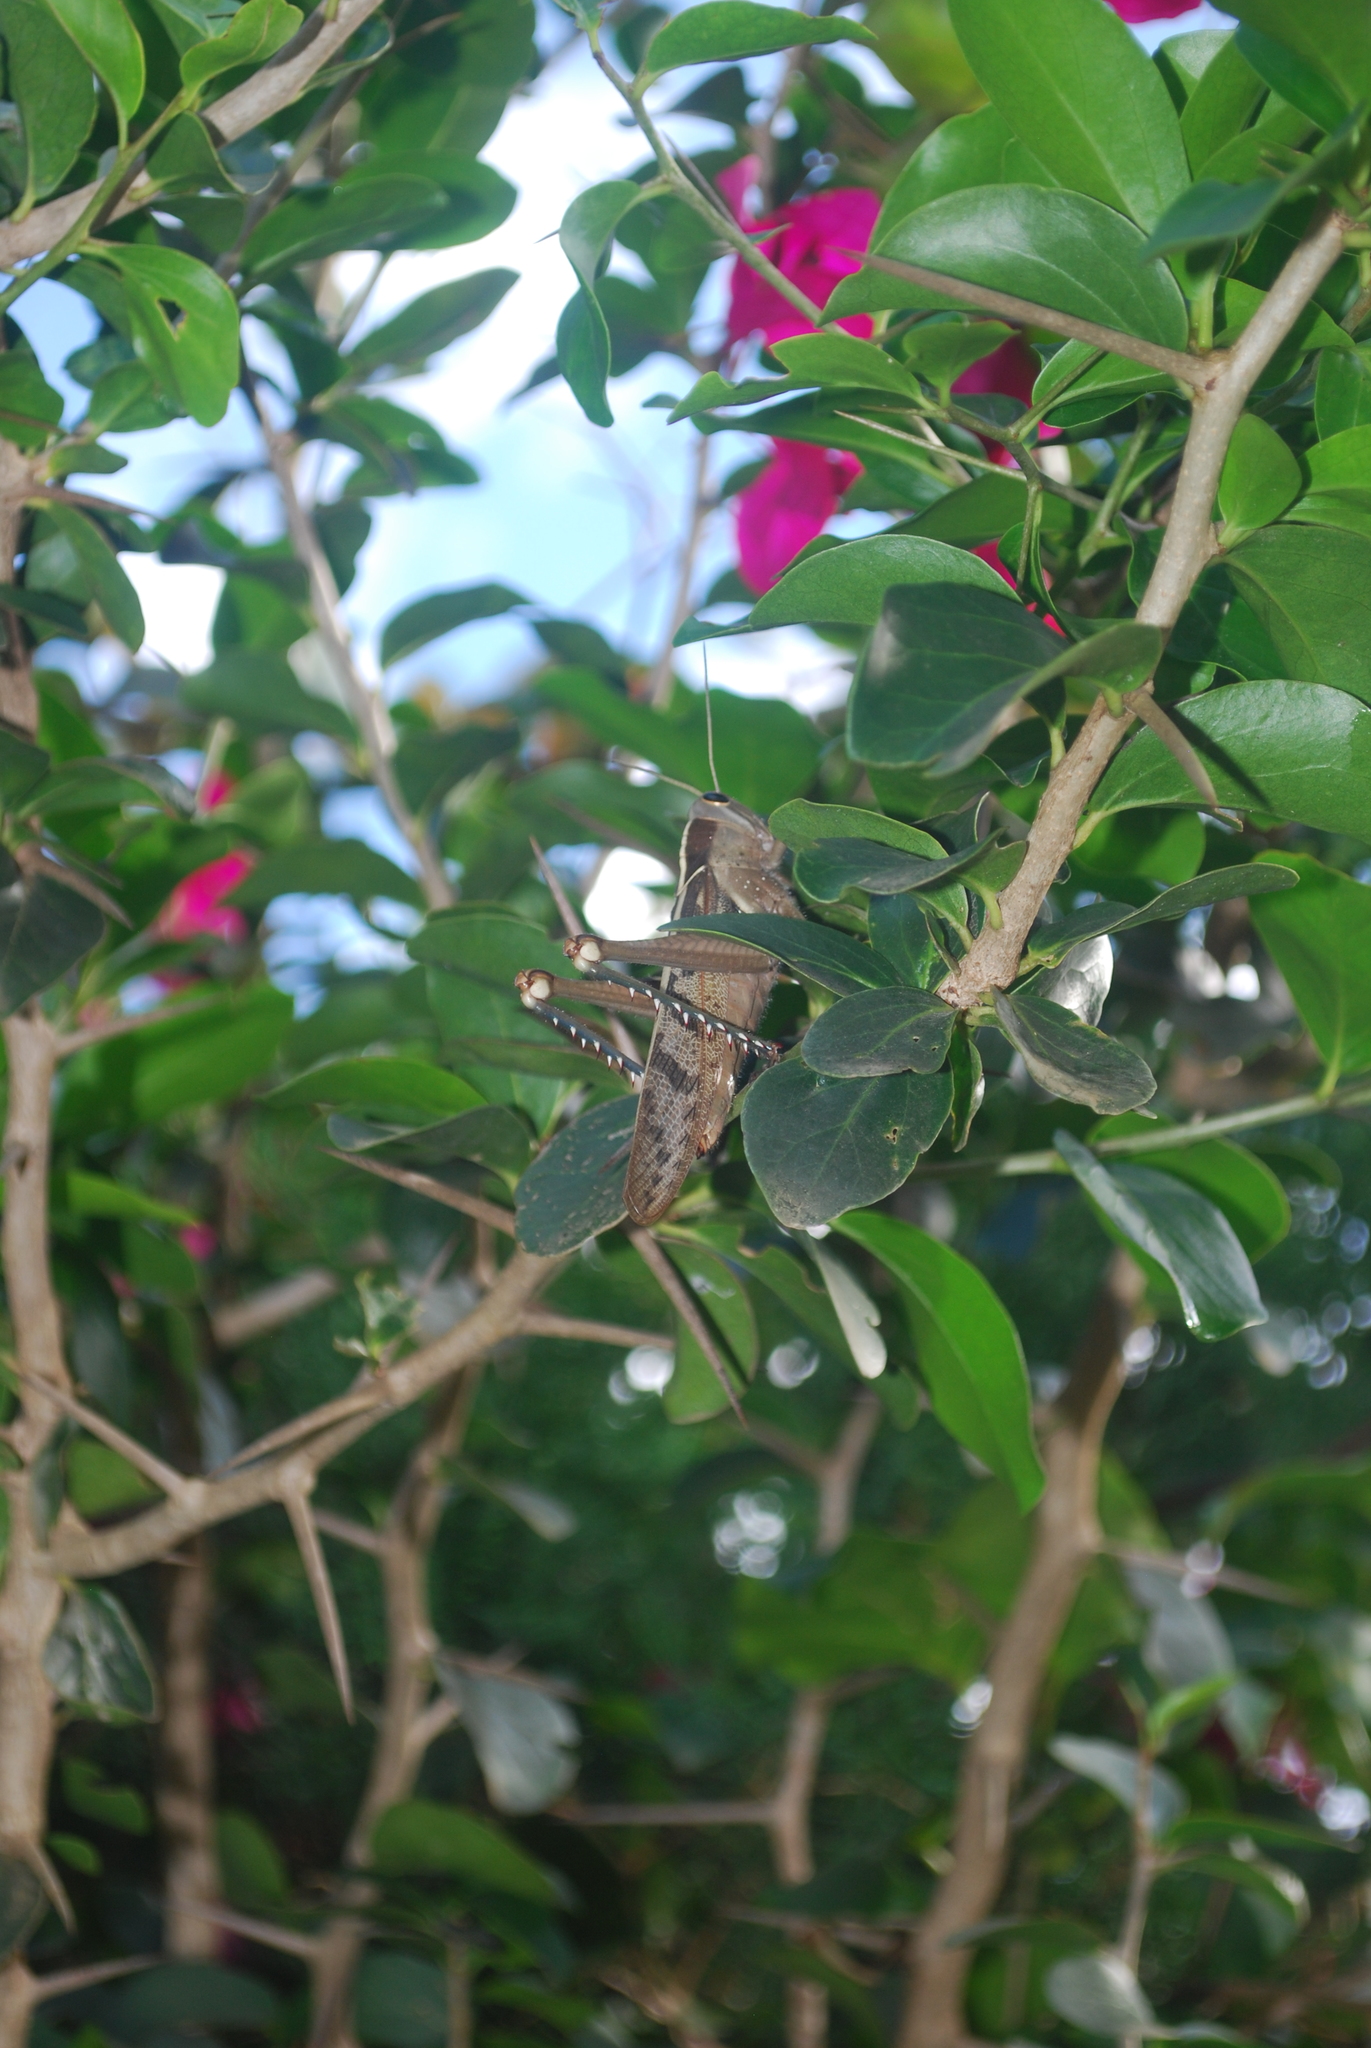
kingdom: Animalia
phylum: Arthropoda
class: Insecta
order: Orthoptera
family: Acrididae
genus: Acanthacris
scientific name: Acanthacris ruficornis
